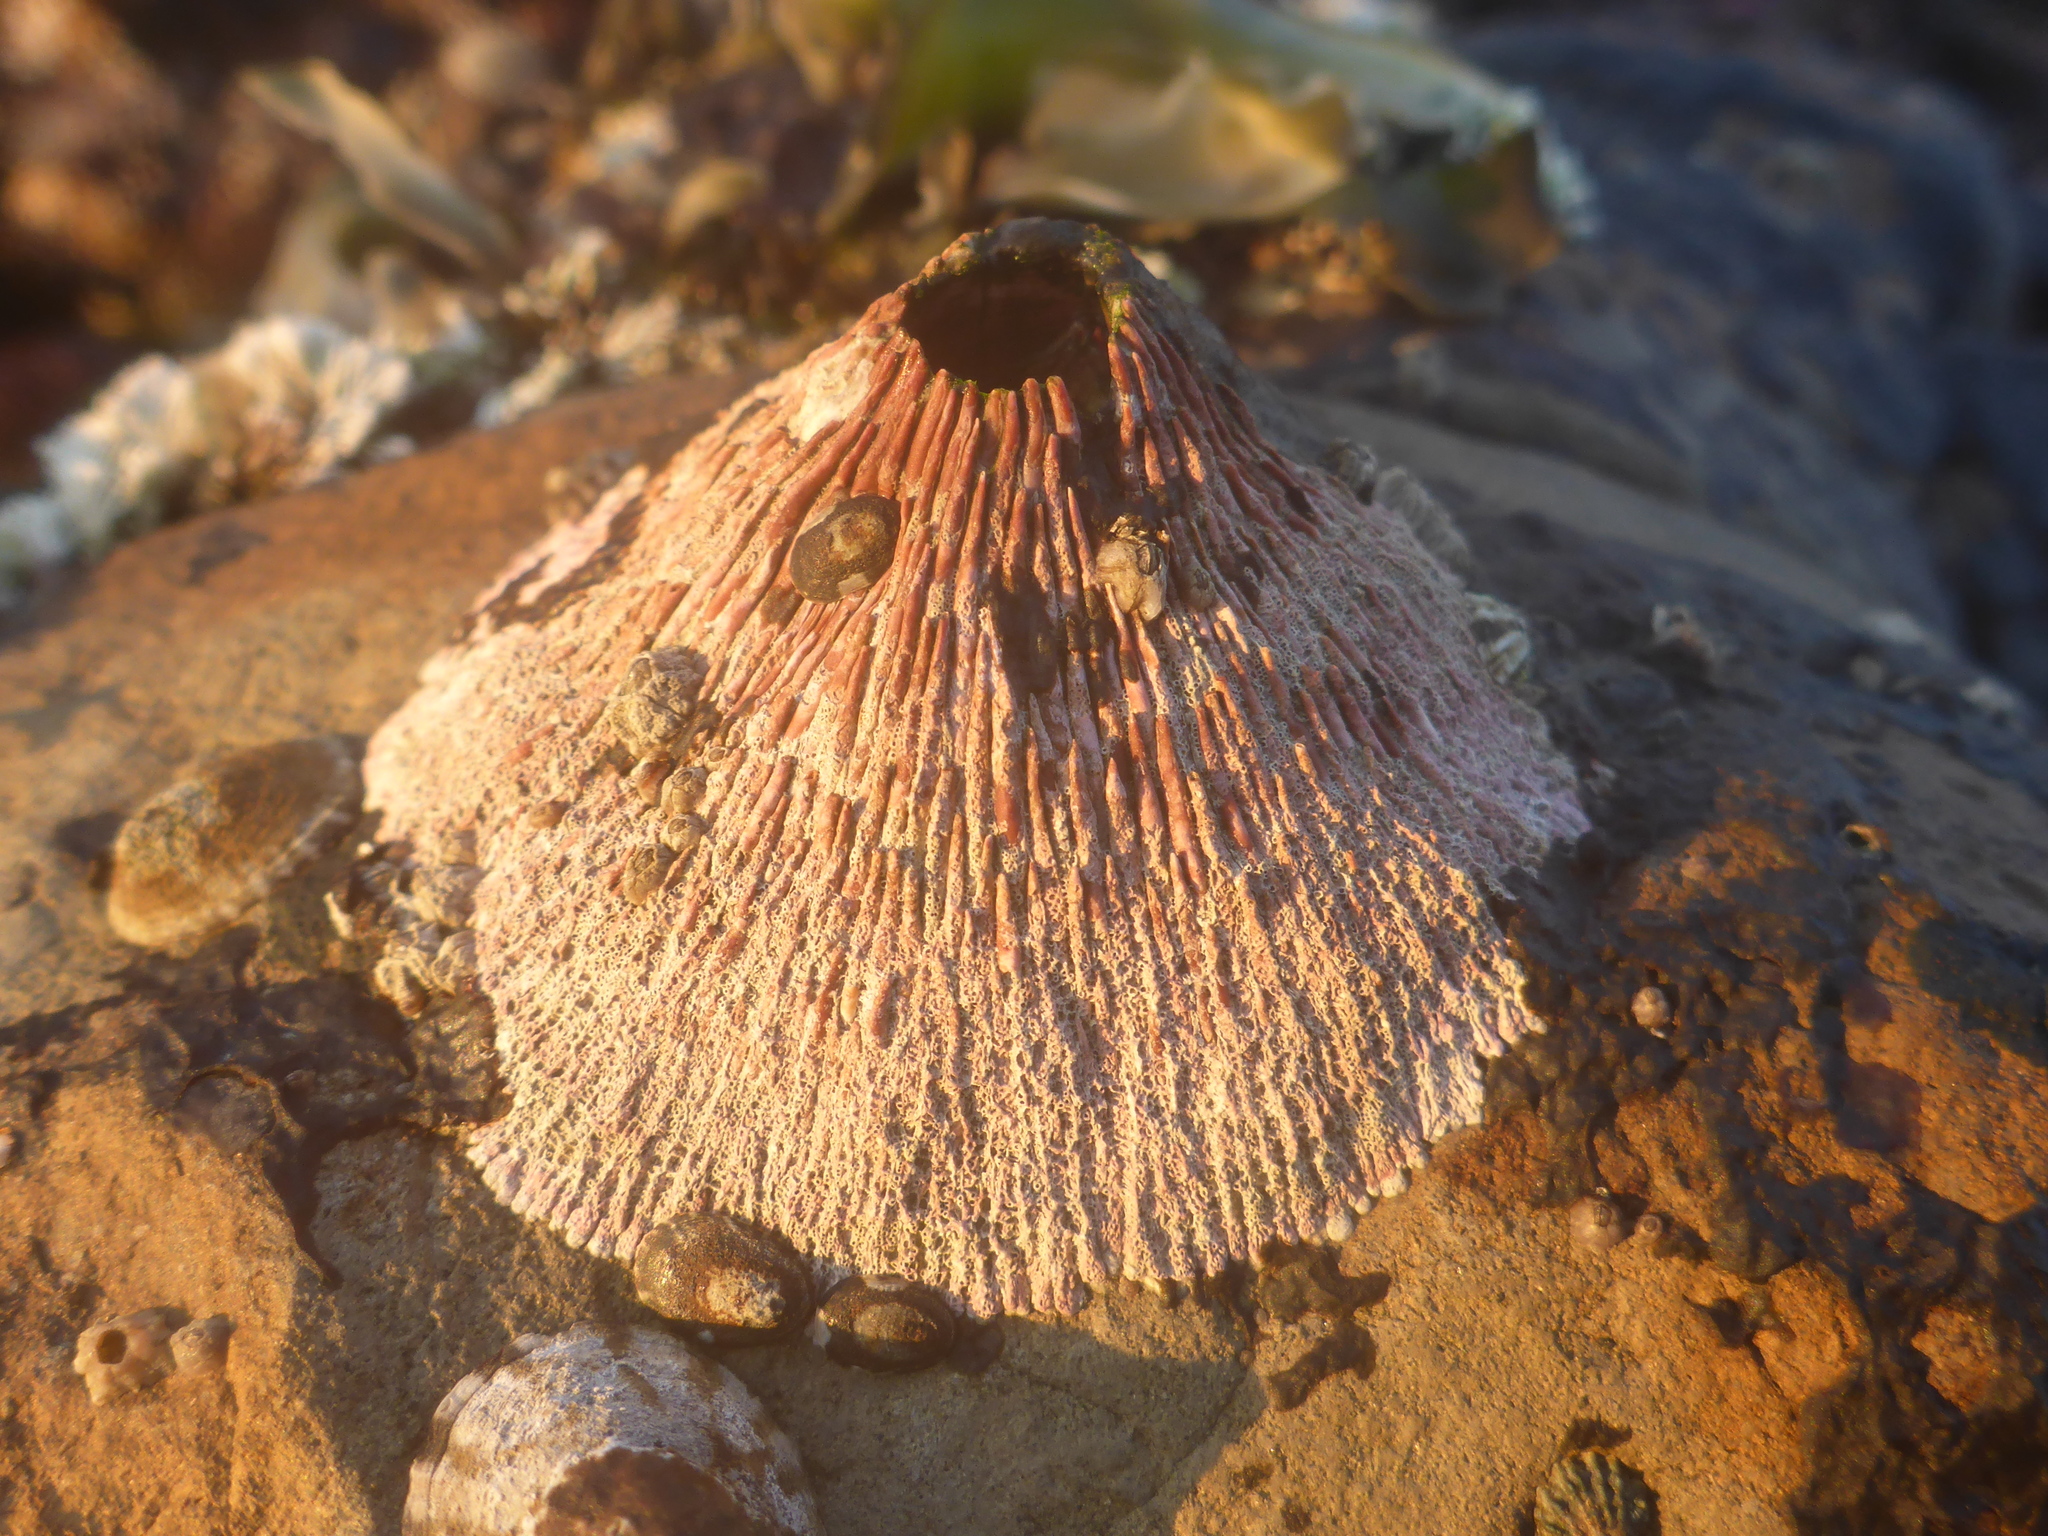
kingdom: Animalia
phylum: Arthropoda
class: Maxillopoda
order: Sessilia
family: Tetraclitidae
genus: Tetraclita
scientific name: Tetraclita rubescens
